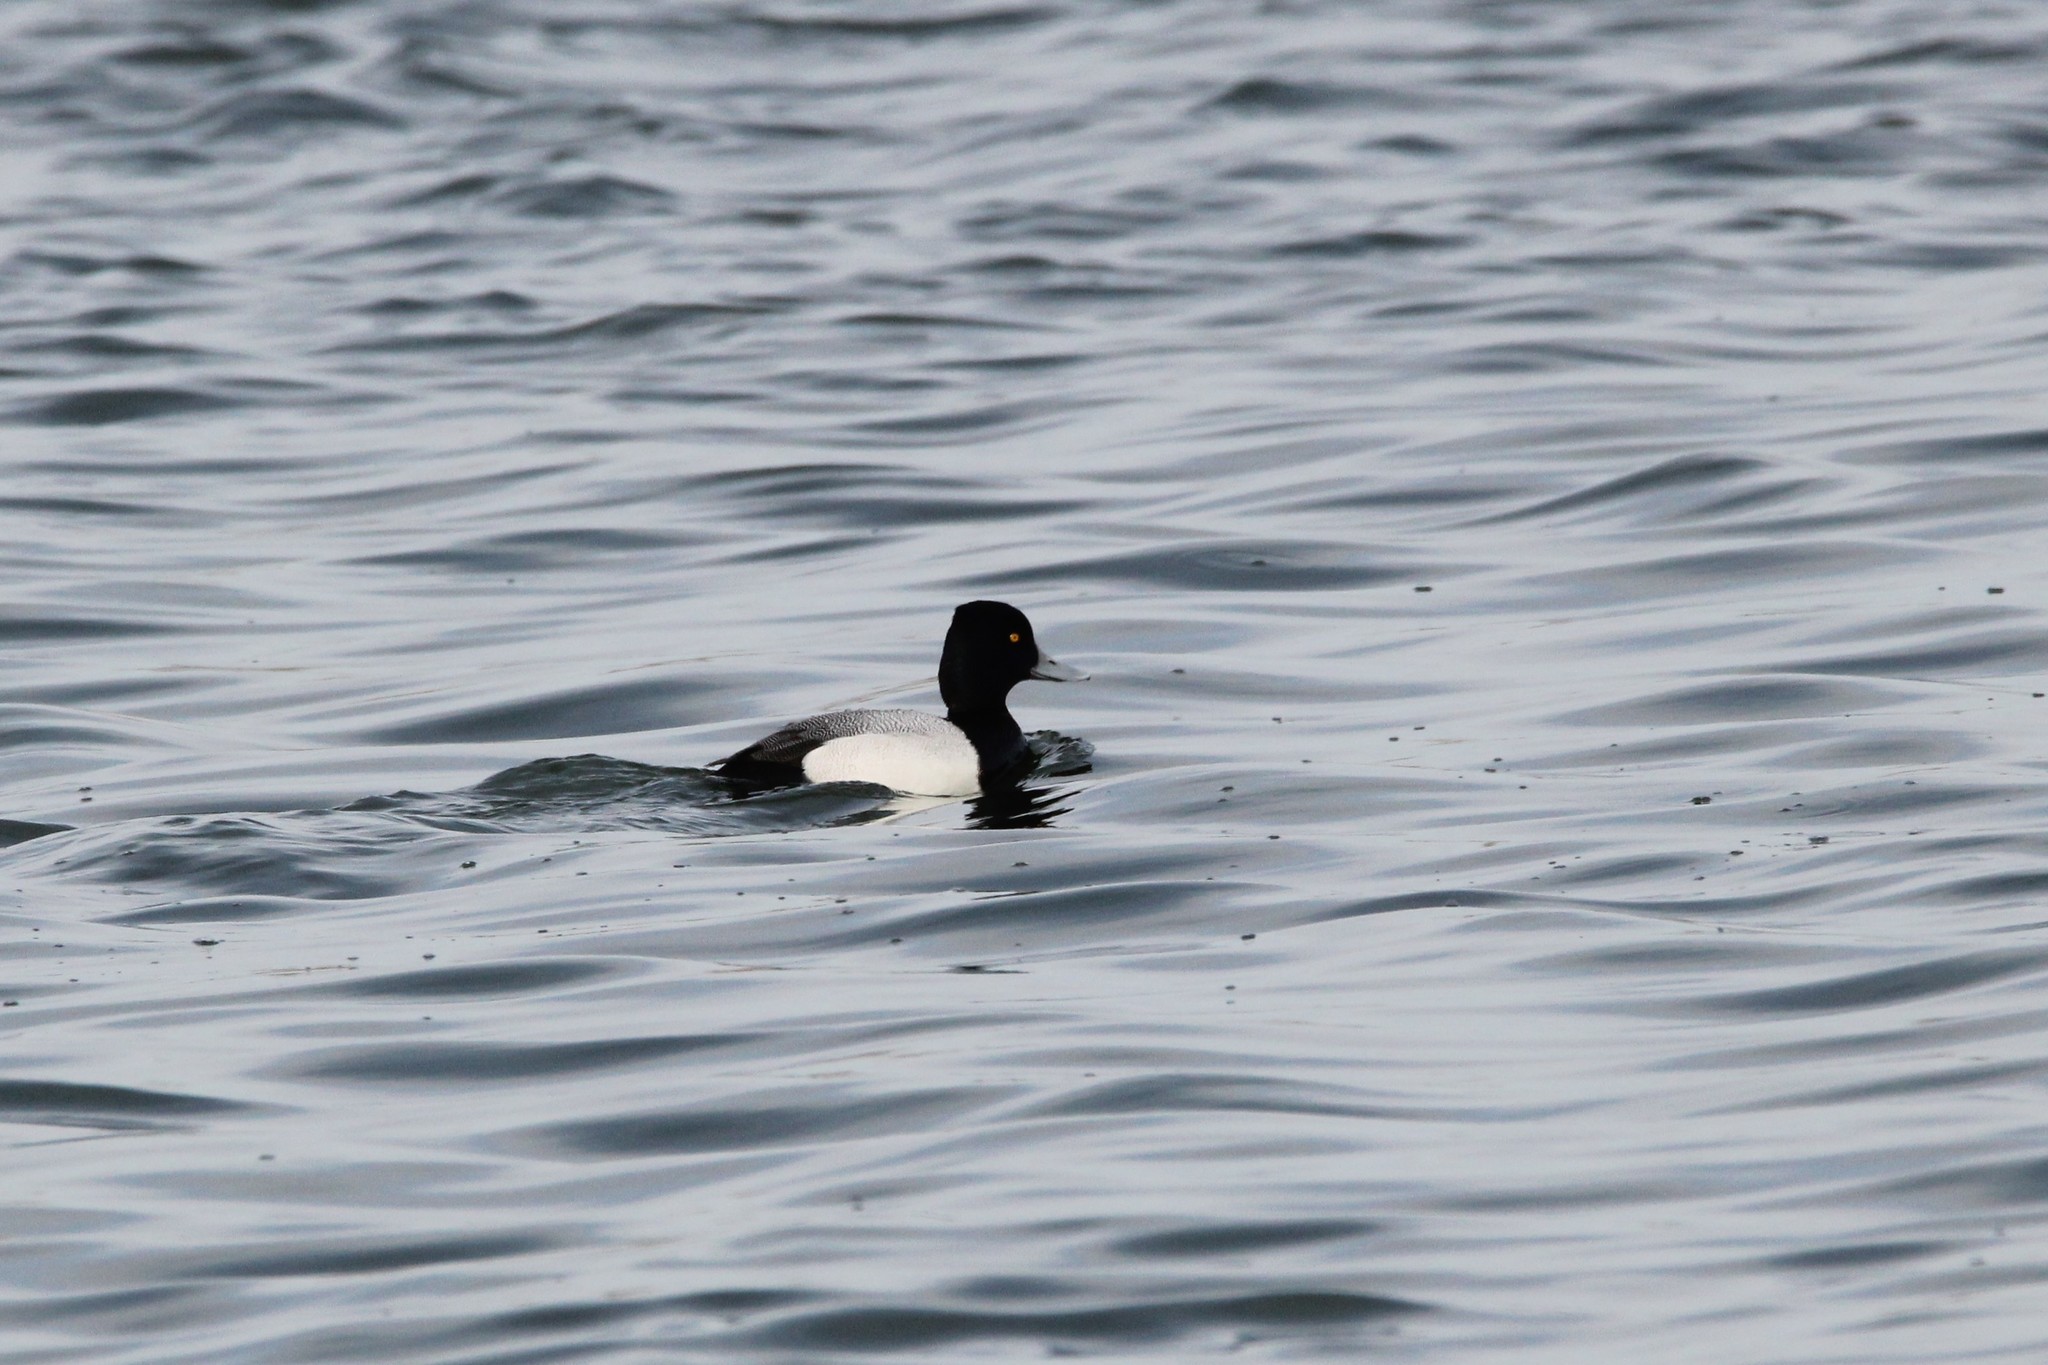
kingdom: Animalia
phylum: Chordata
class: Aves
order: Anseriformes
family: Anatidae
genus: Aythya
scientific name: Aythya affinis
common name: Lesser scaup
